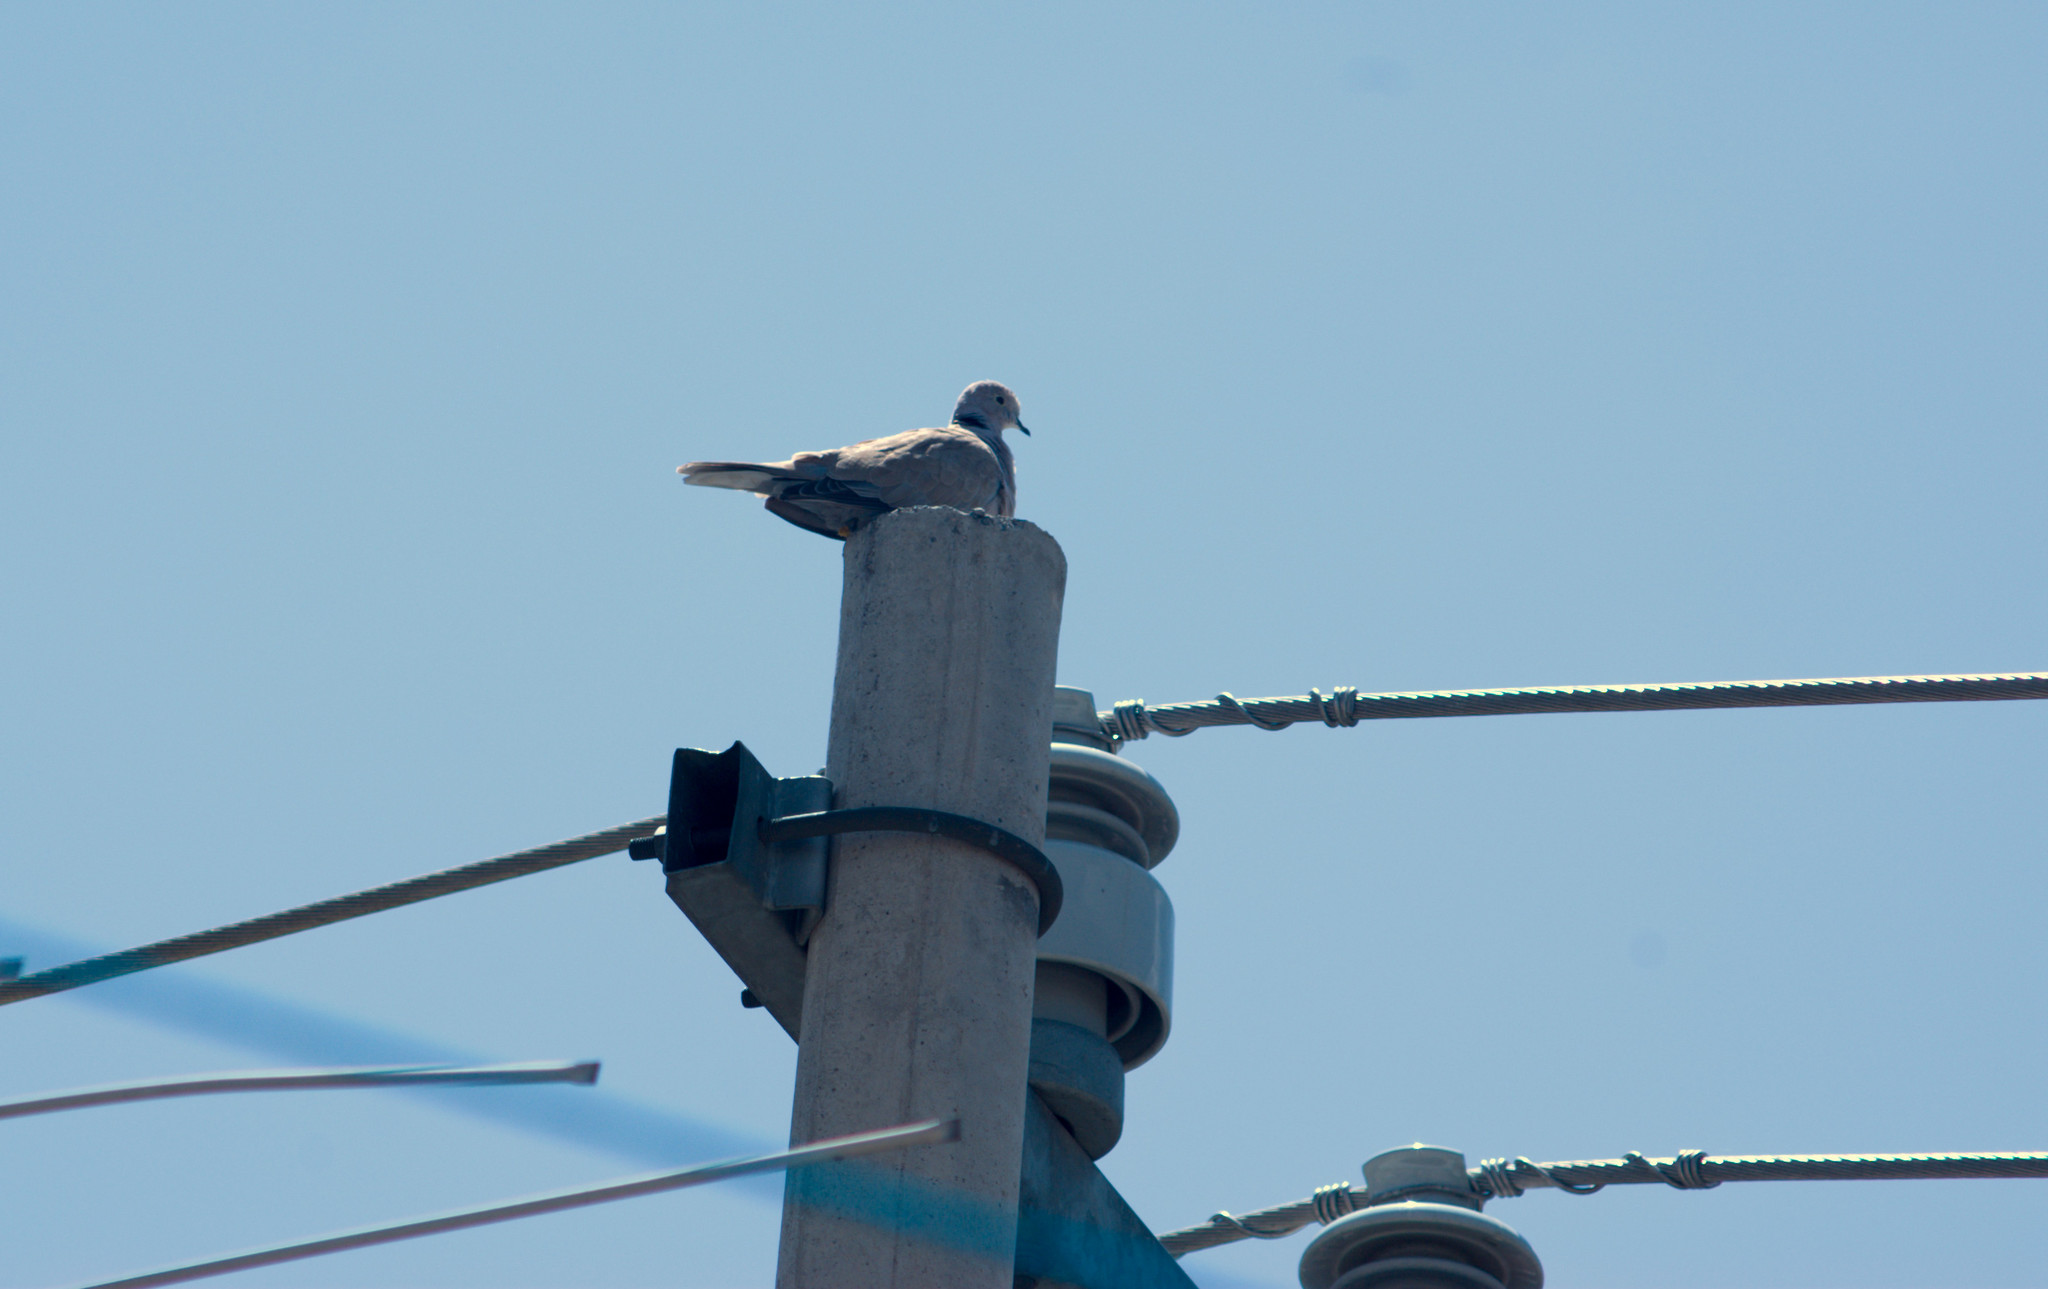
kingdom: Animalia
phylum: Chordata
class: Aves
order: Columbiformes
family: Columbidae
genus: Streptopelia
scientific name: Streptopelia decaocto
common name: Eurasian collared dove
